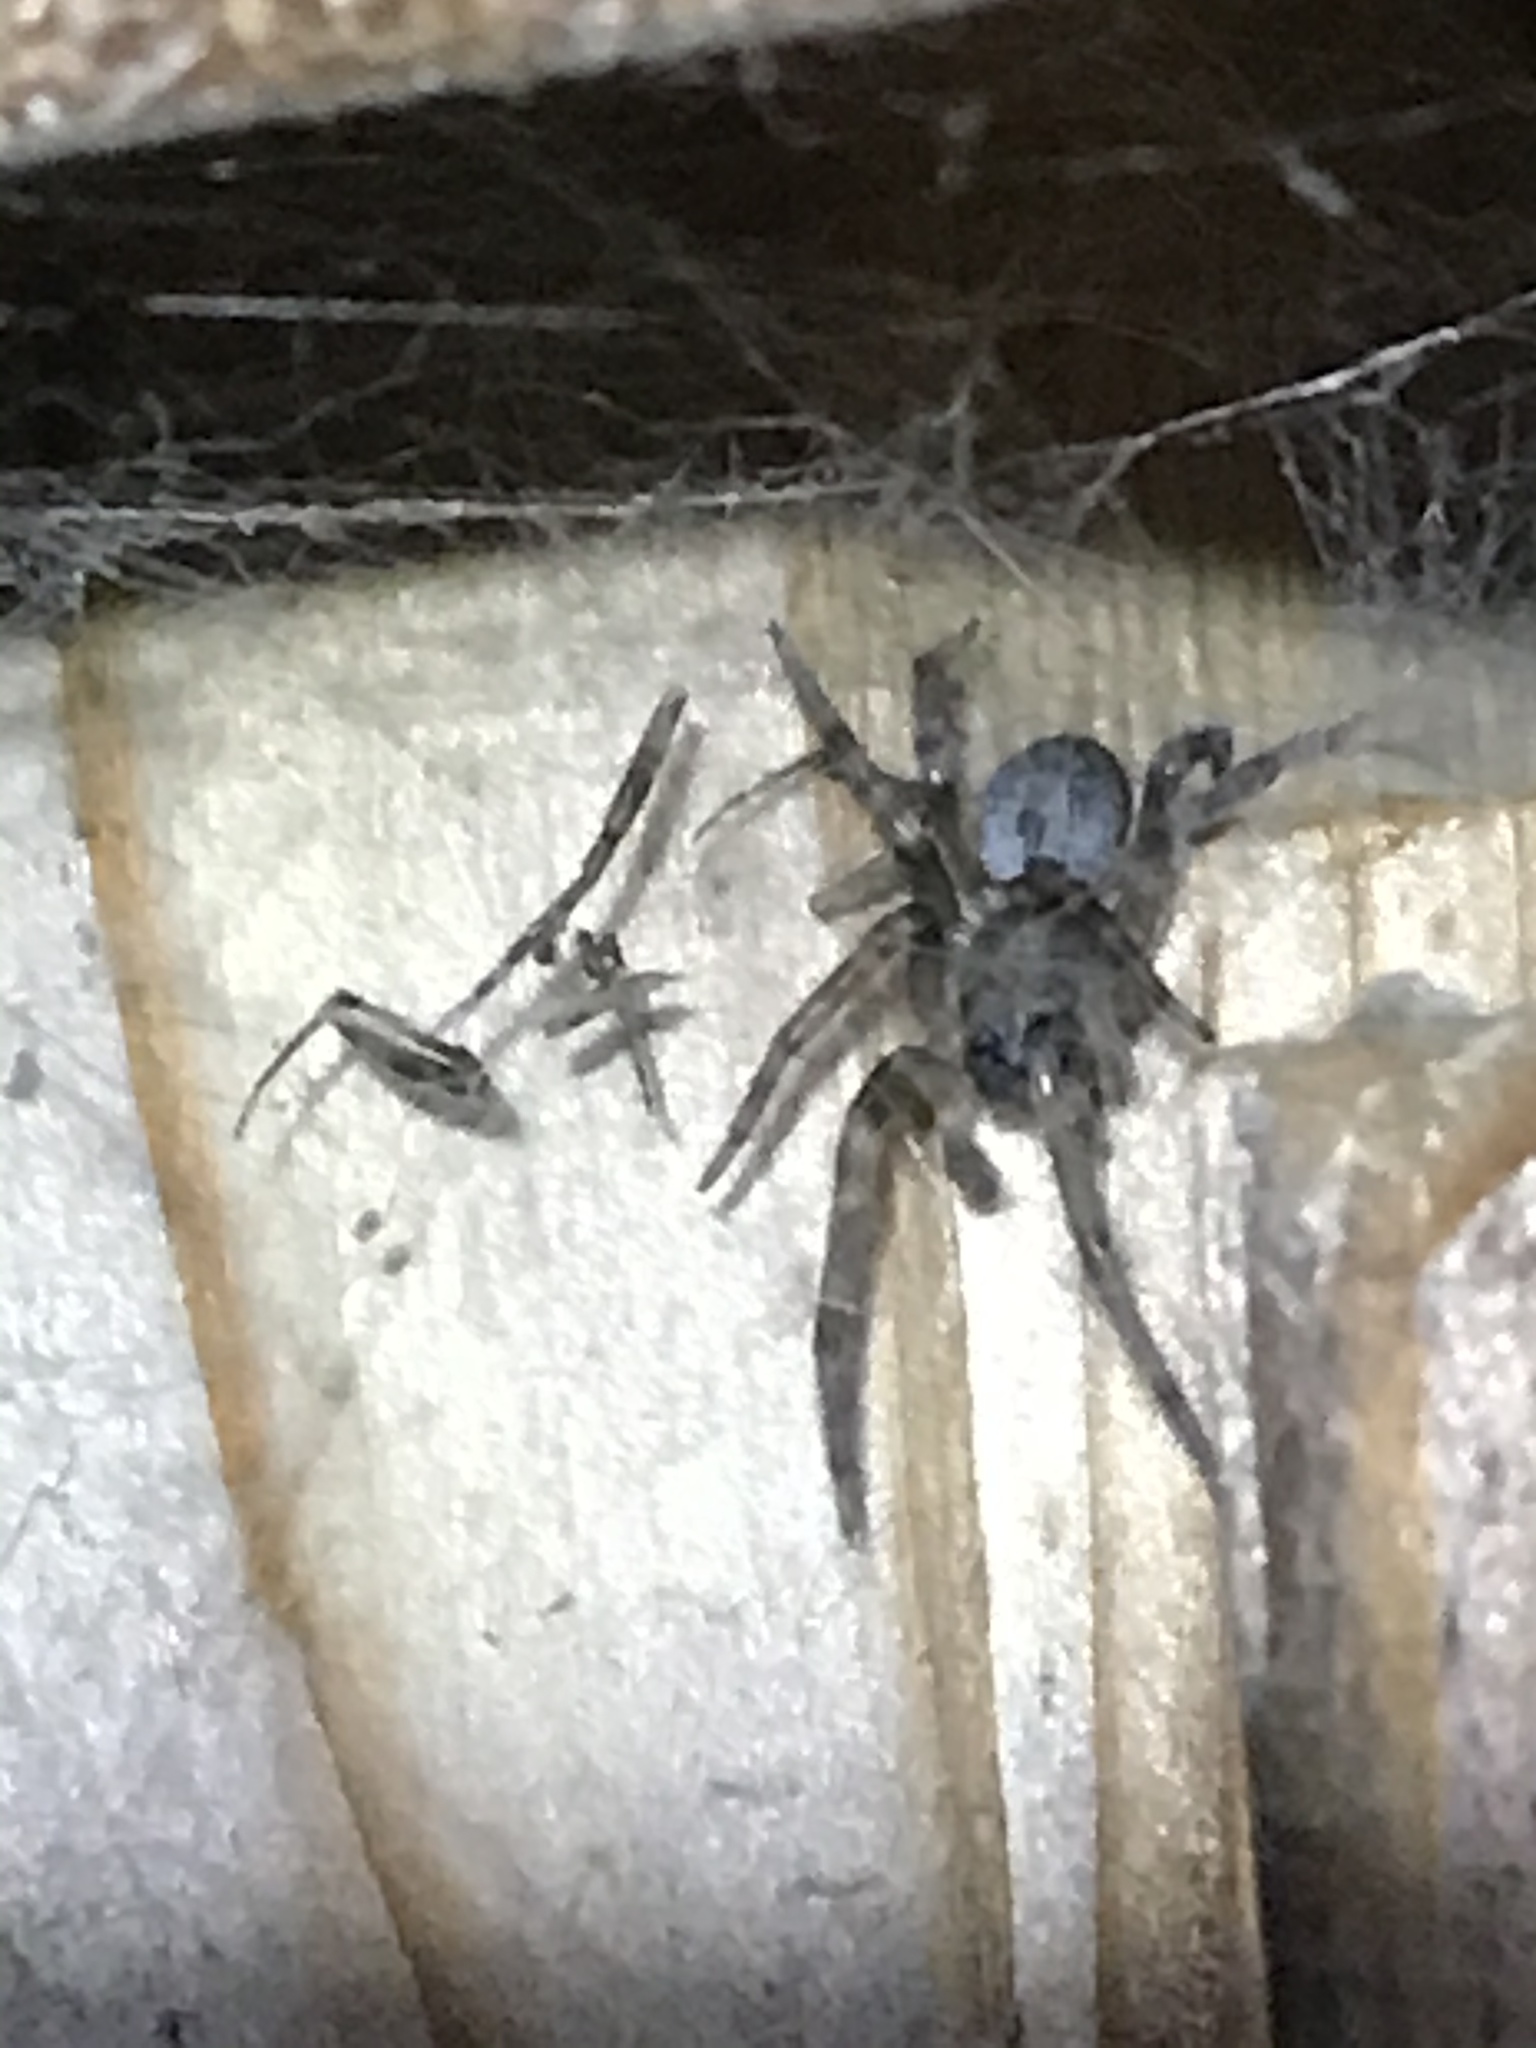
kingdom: Animalia
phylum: Arthropoda
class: Arachnida
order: Araneae
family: Desidae
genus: Badumna
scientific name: Badumna longinqua
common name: Gray house spider
